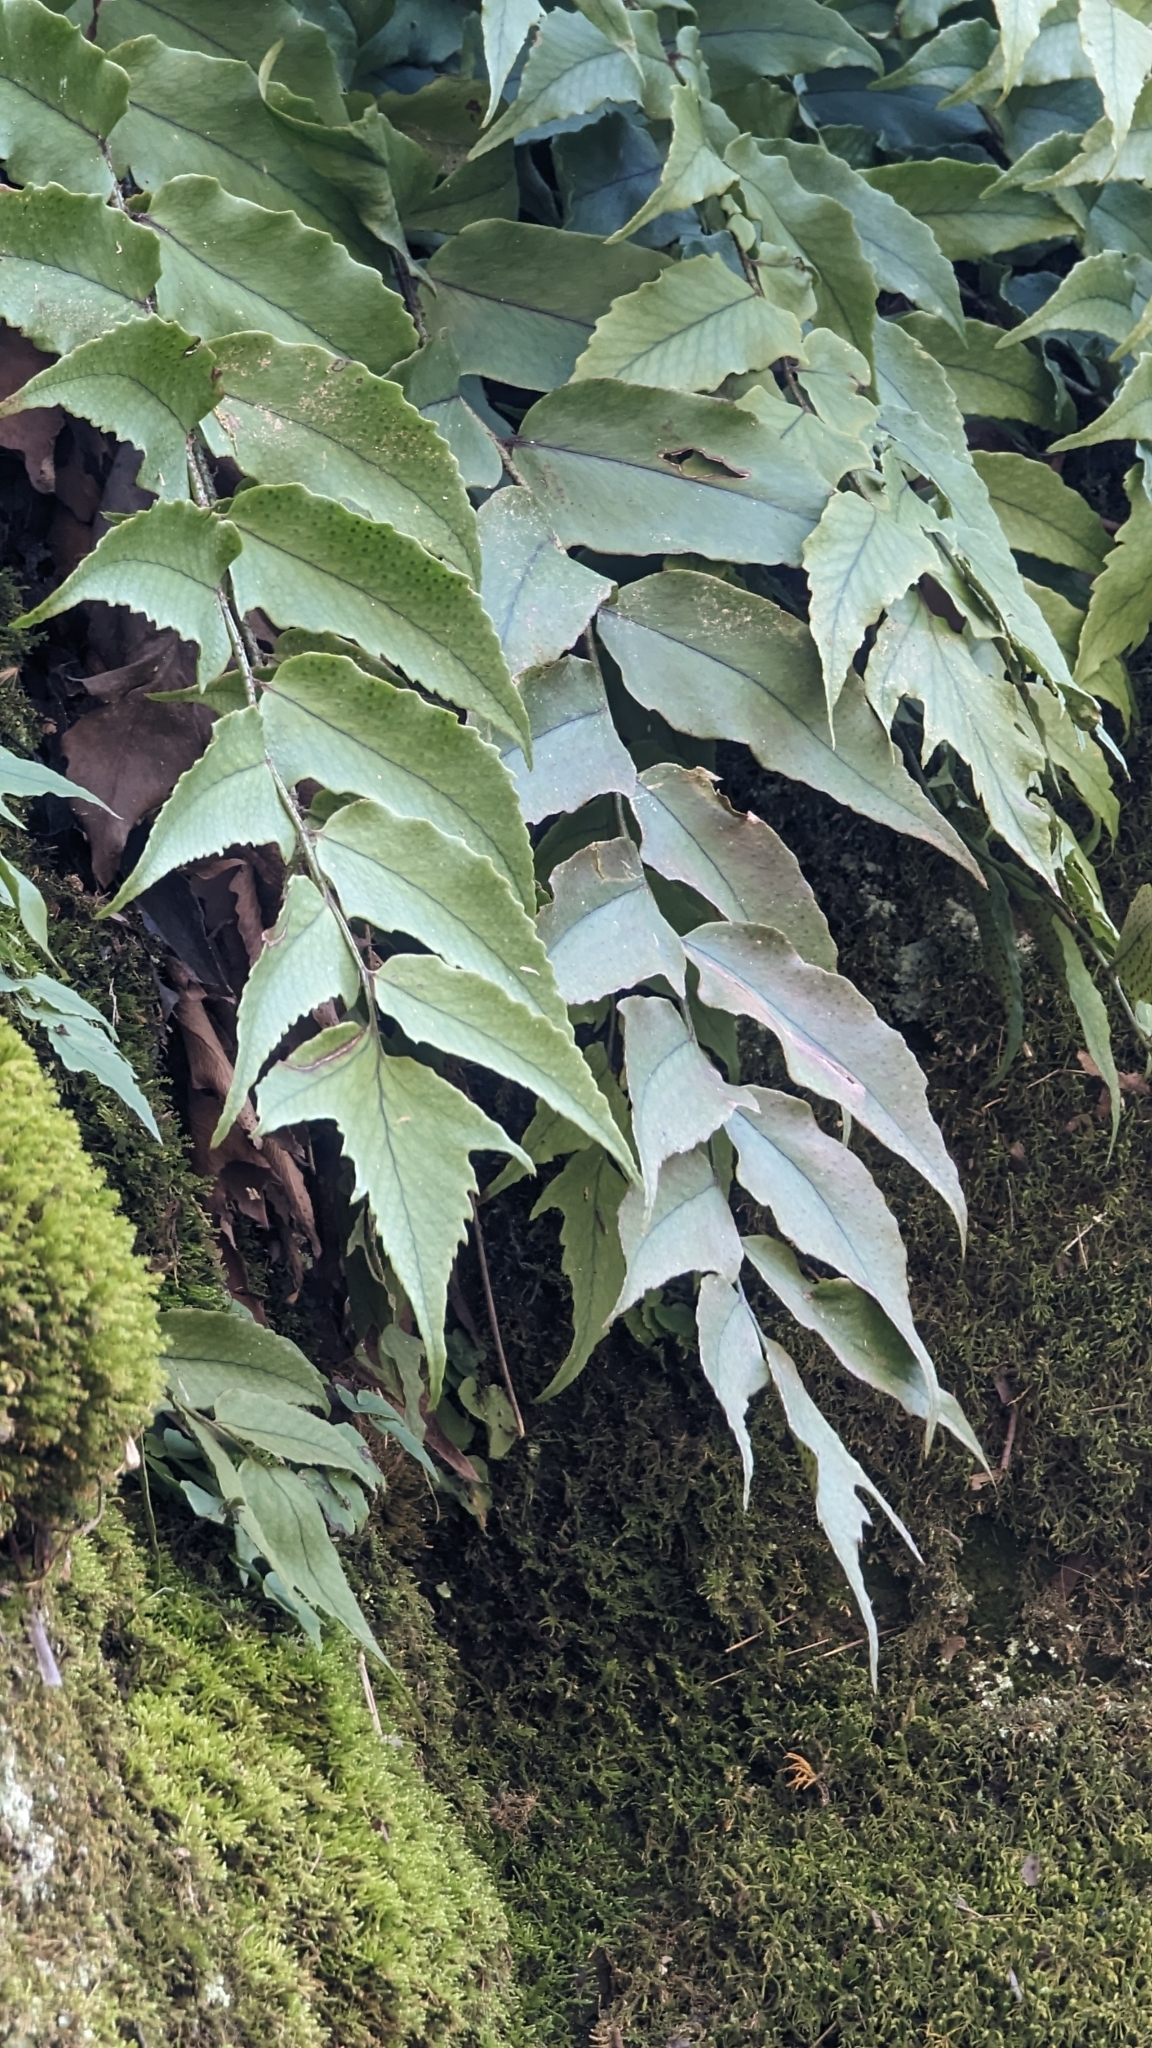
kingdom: Plantae
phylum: Tracheophyta
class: Polypodiopsida
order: Polypodiales
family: Dryopteridaceae
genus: Cyrtomium
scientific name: Cyrtomium fortunei
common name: Asian netvein hollyfern
